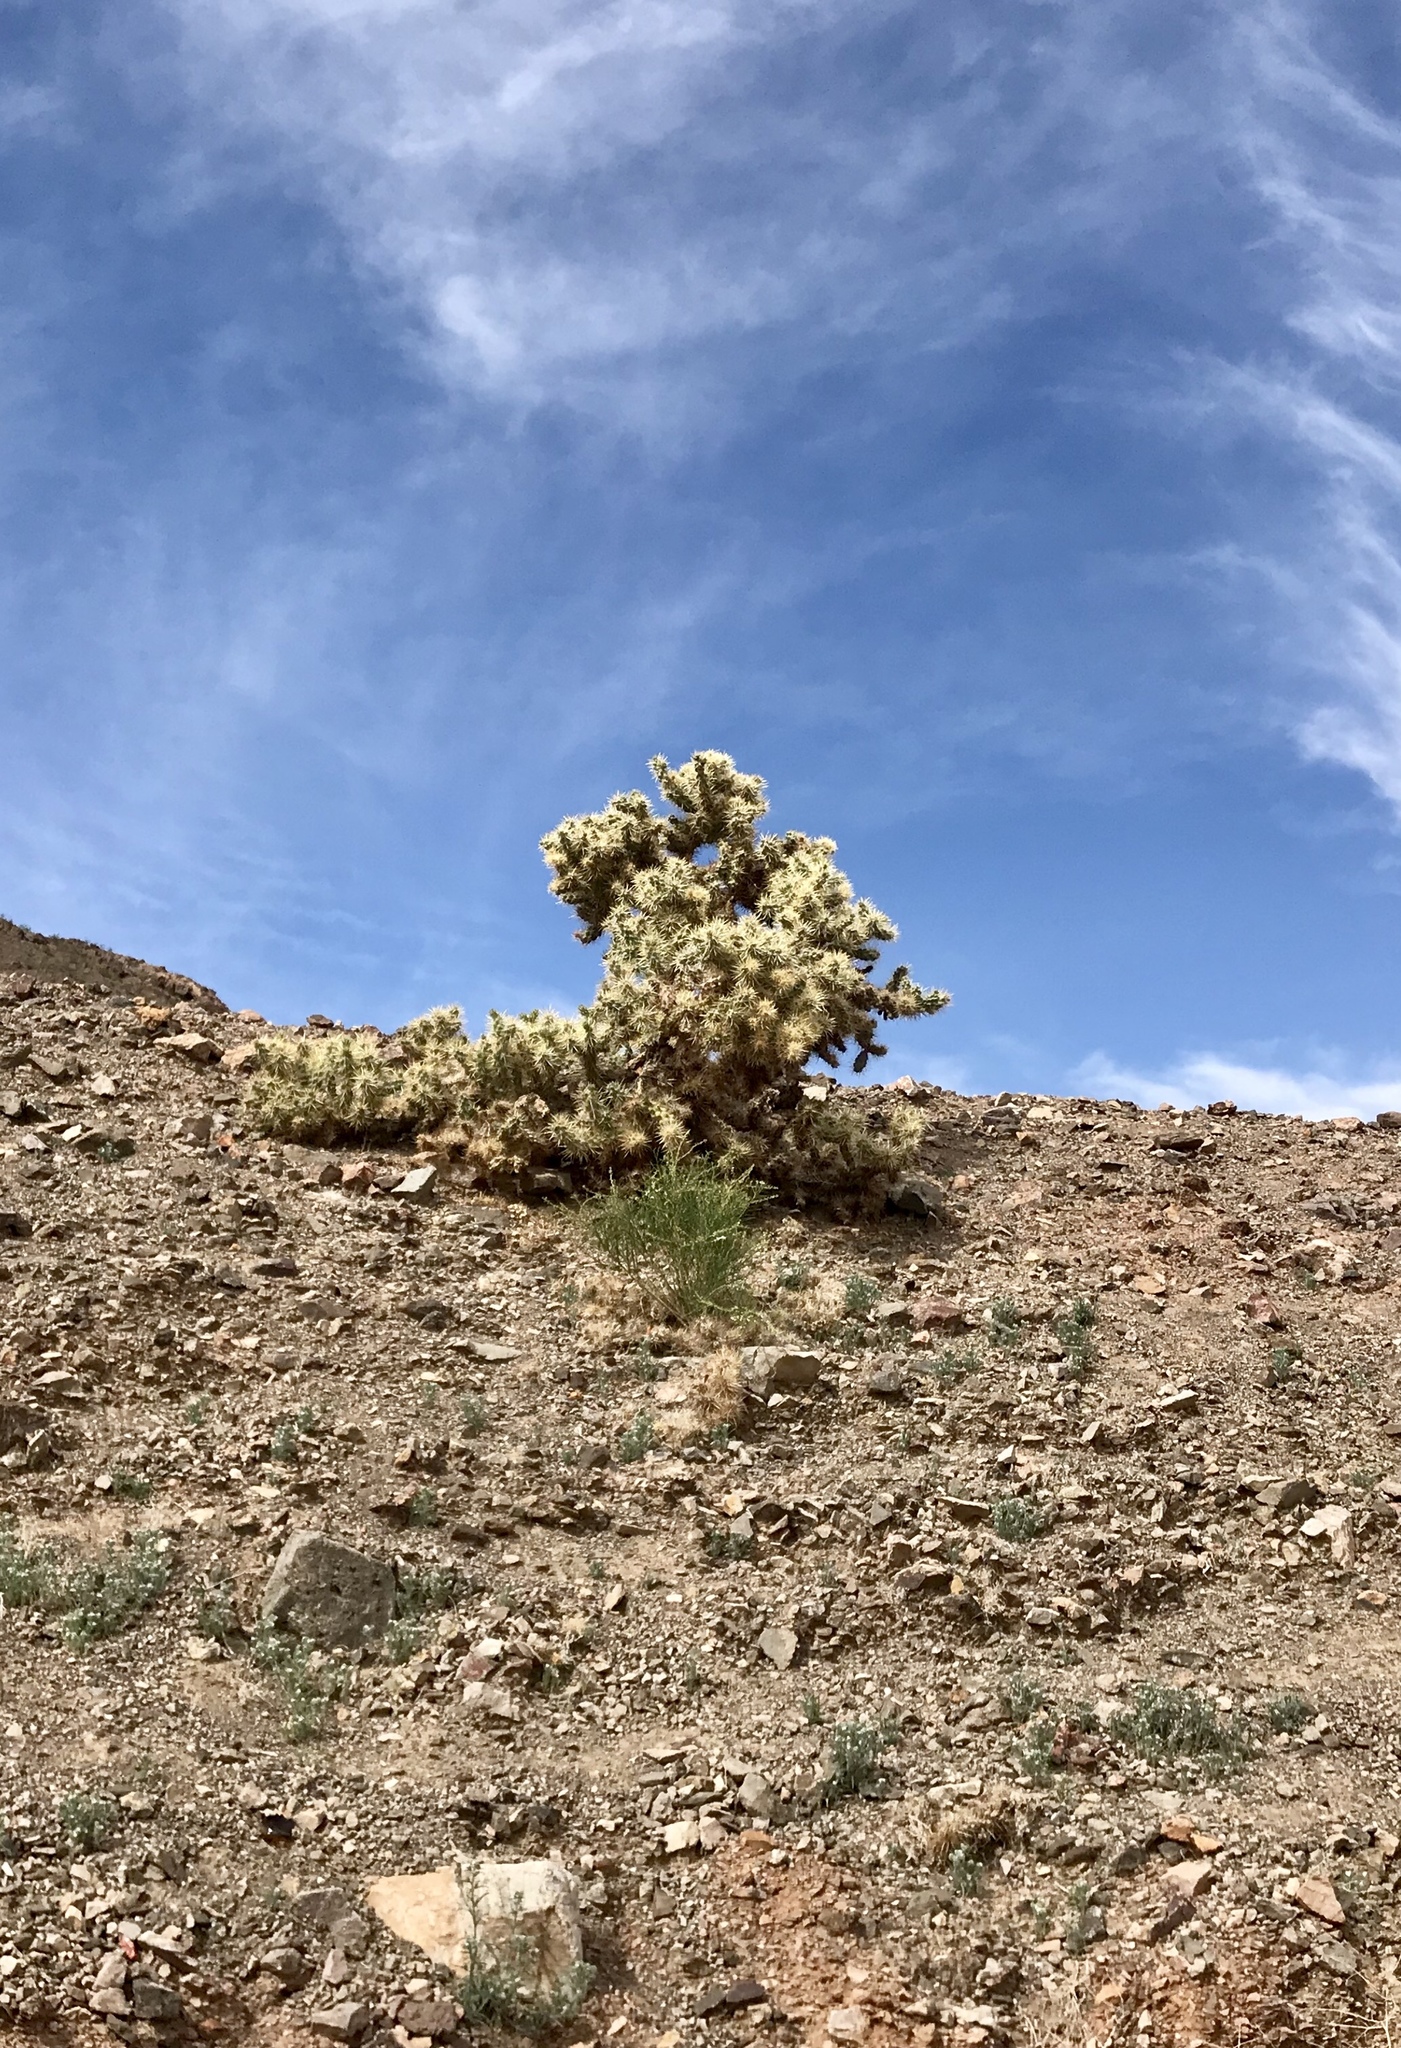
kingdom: Plantae
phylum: Tracheophyta
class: Magnoliopsida
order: Caryophyllales
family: Cactaceae
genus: Cylindropuntia
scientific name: Cylindropuntia echinocarpa
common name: Ground cholla
